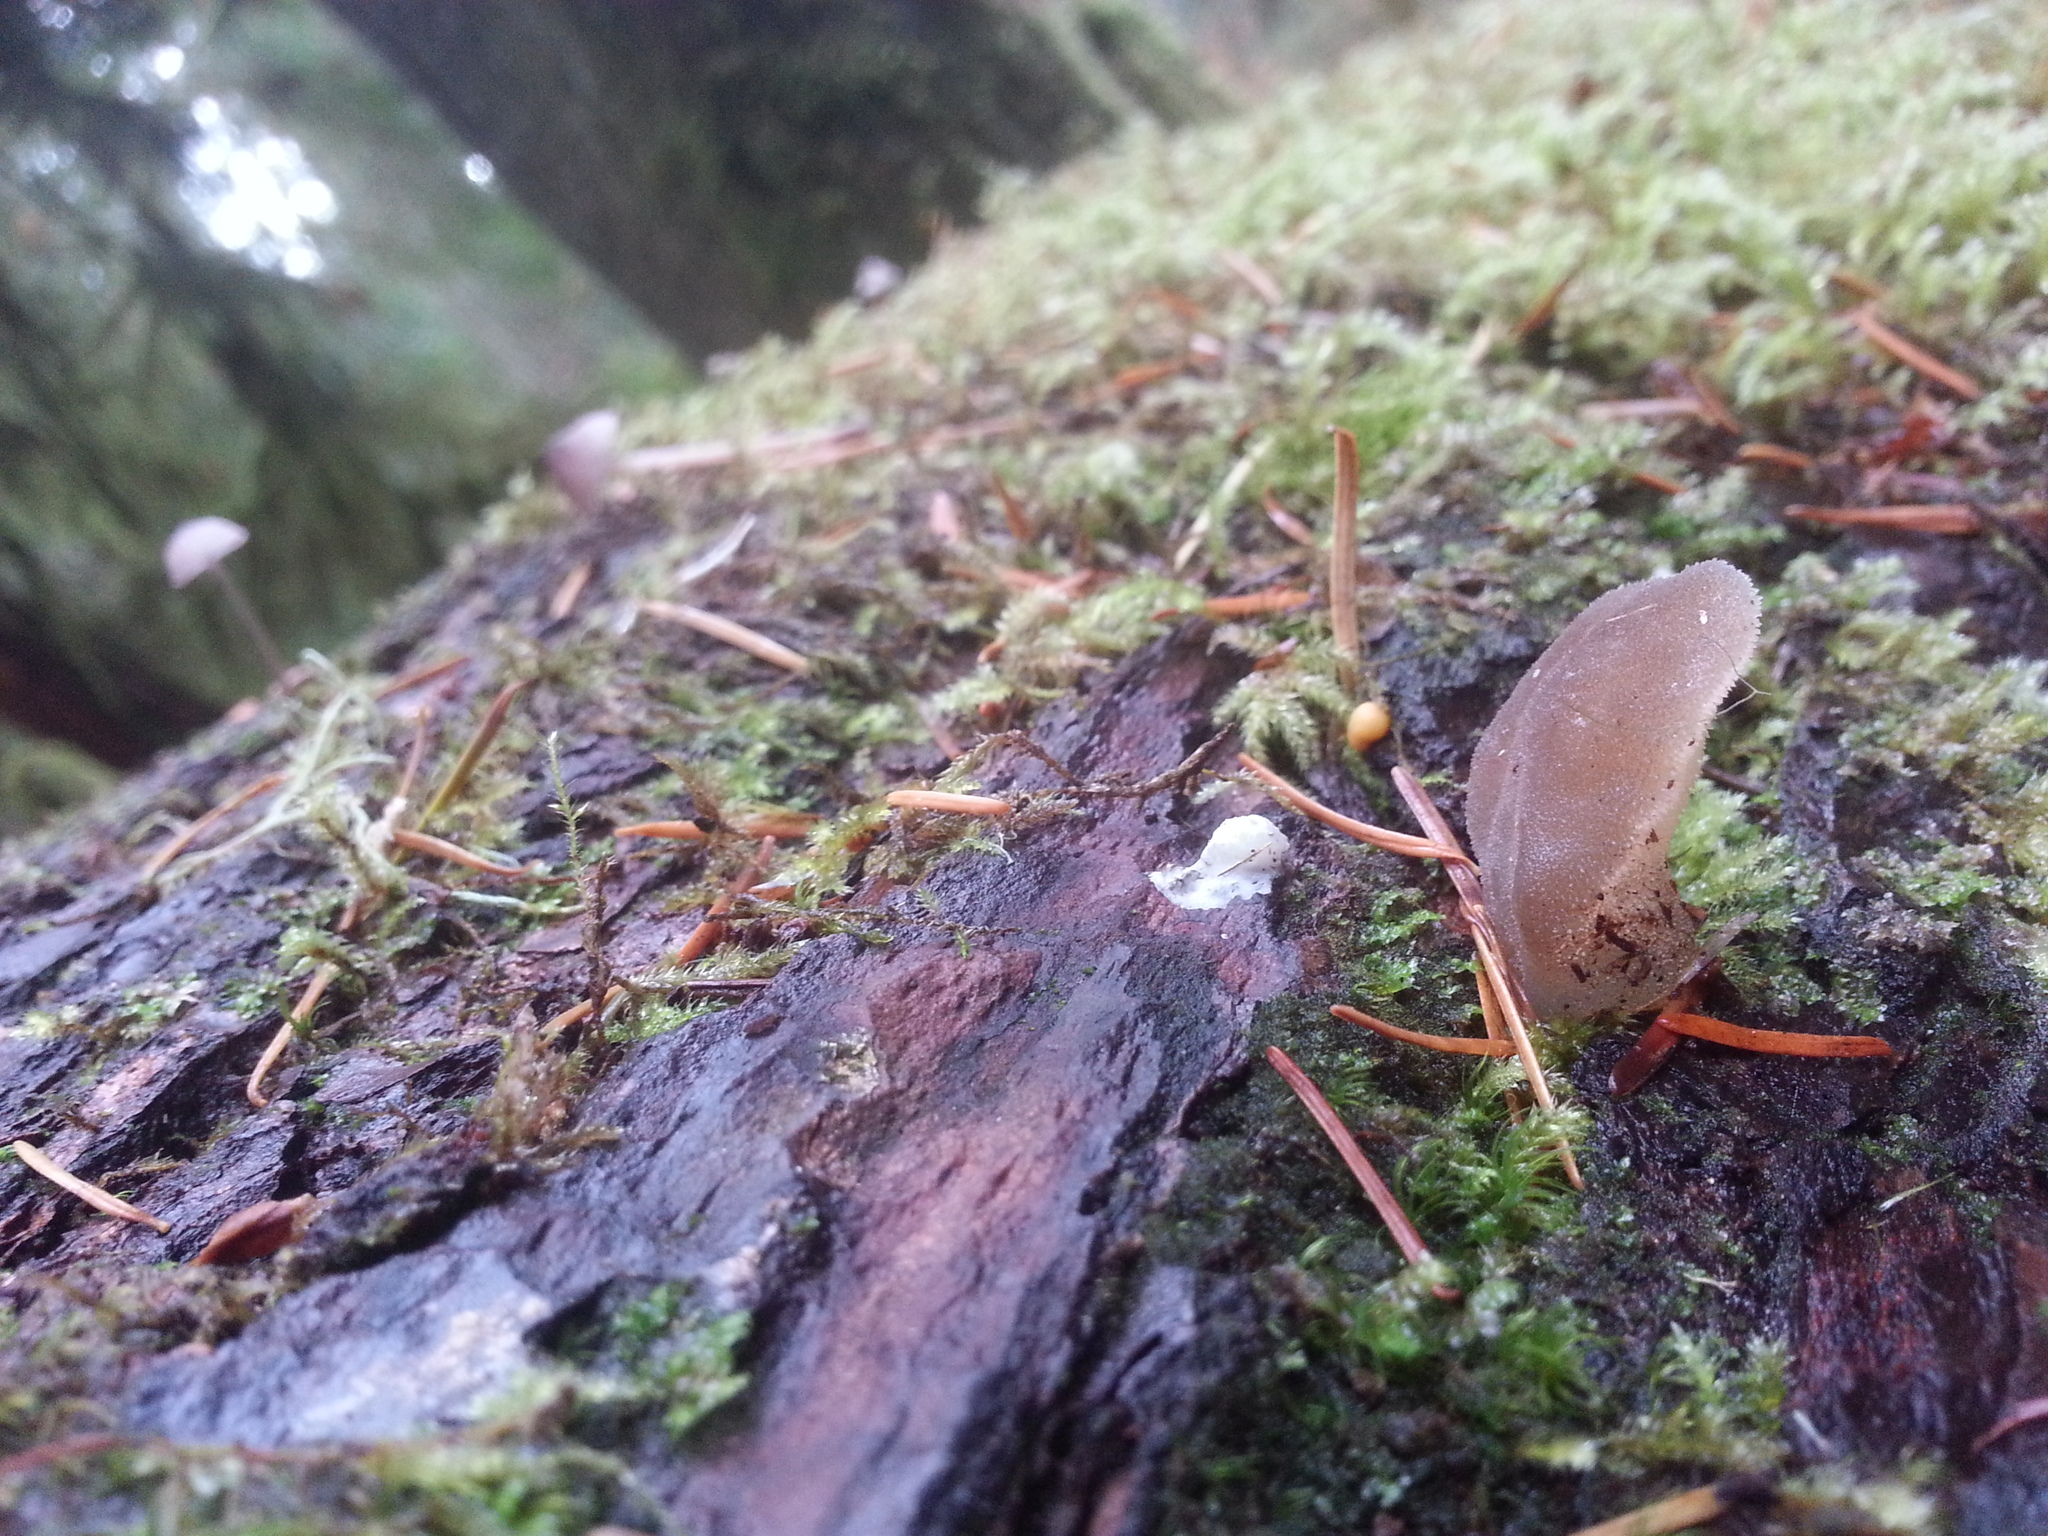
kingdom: Fungi
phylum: Basidiomycota
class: Agaricomycetes
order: Auriculariales
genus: Pseudohydnum
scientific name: Pseudohydnum gelatinosum
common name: Jelly tongue
